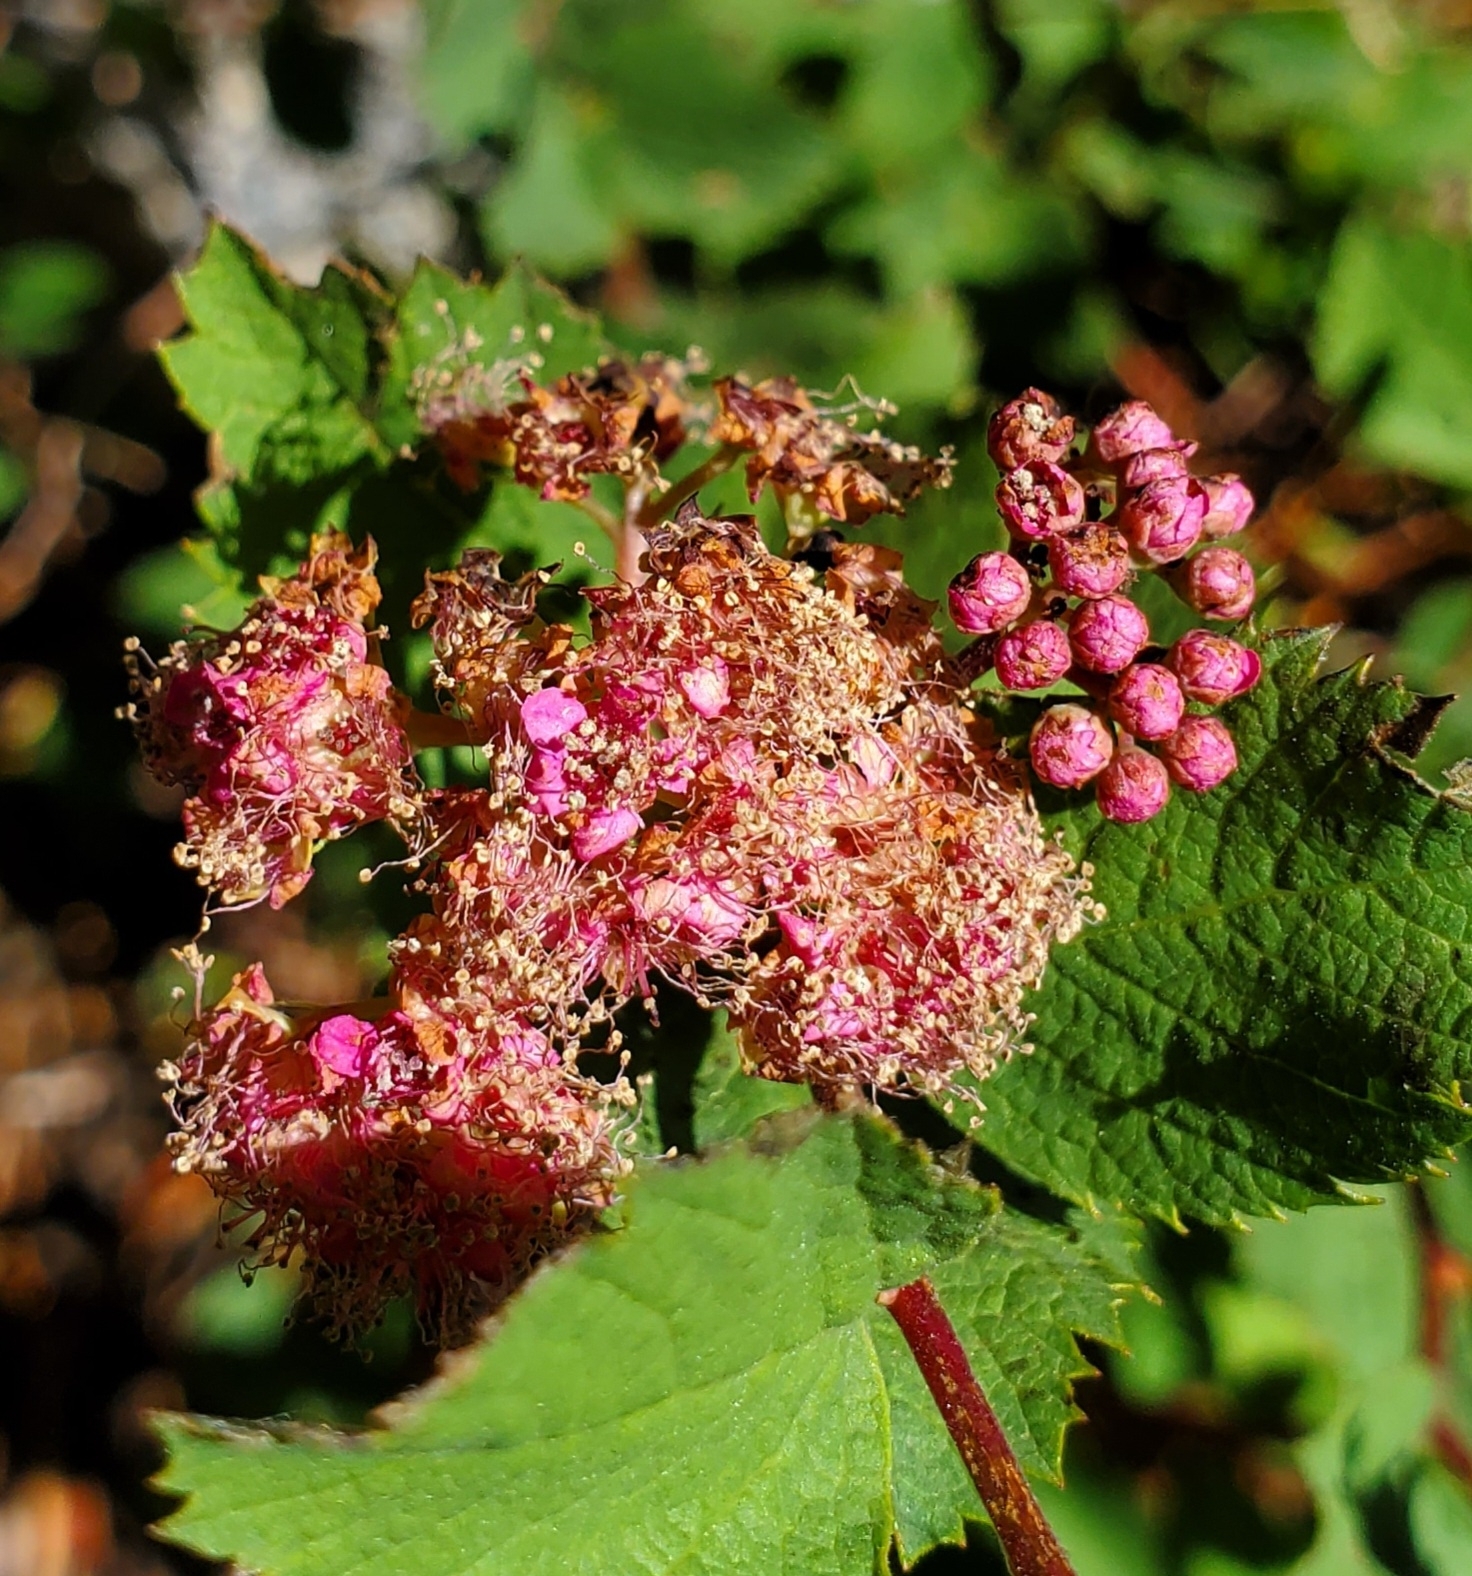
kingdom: Plantae
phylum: Tracheophyta
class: Magnoliopsida
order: Rosales
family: Rosaceae
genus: Spiraea
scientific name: Spiraea splendens
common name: Subalpine meadowsweet
